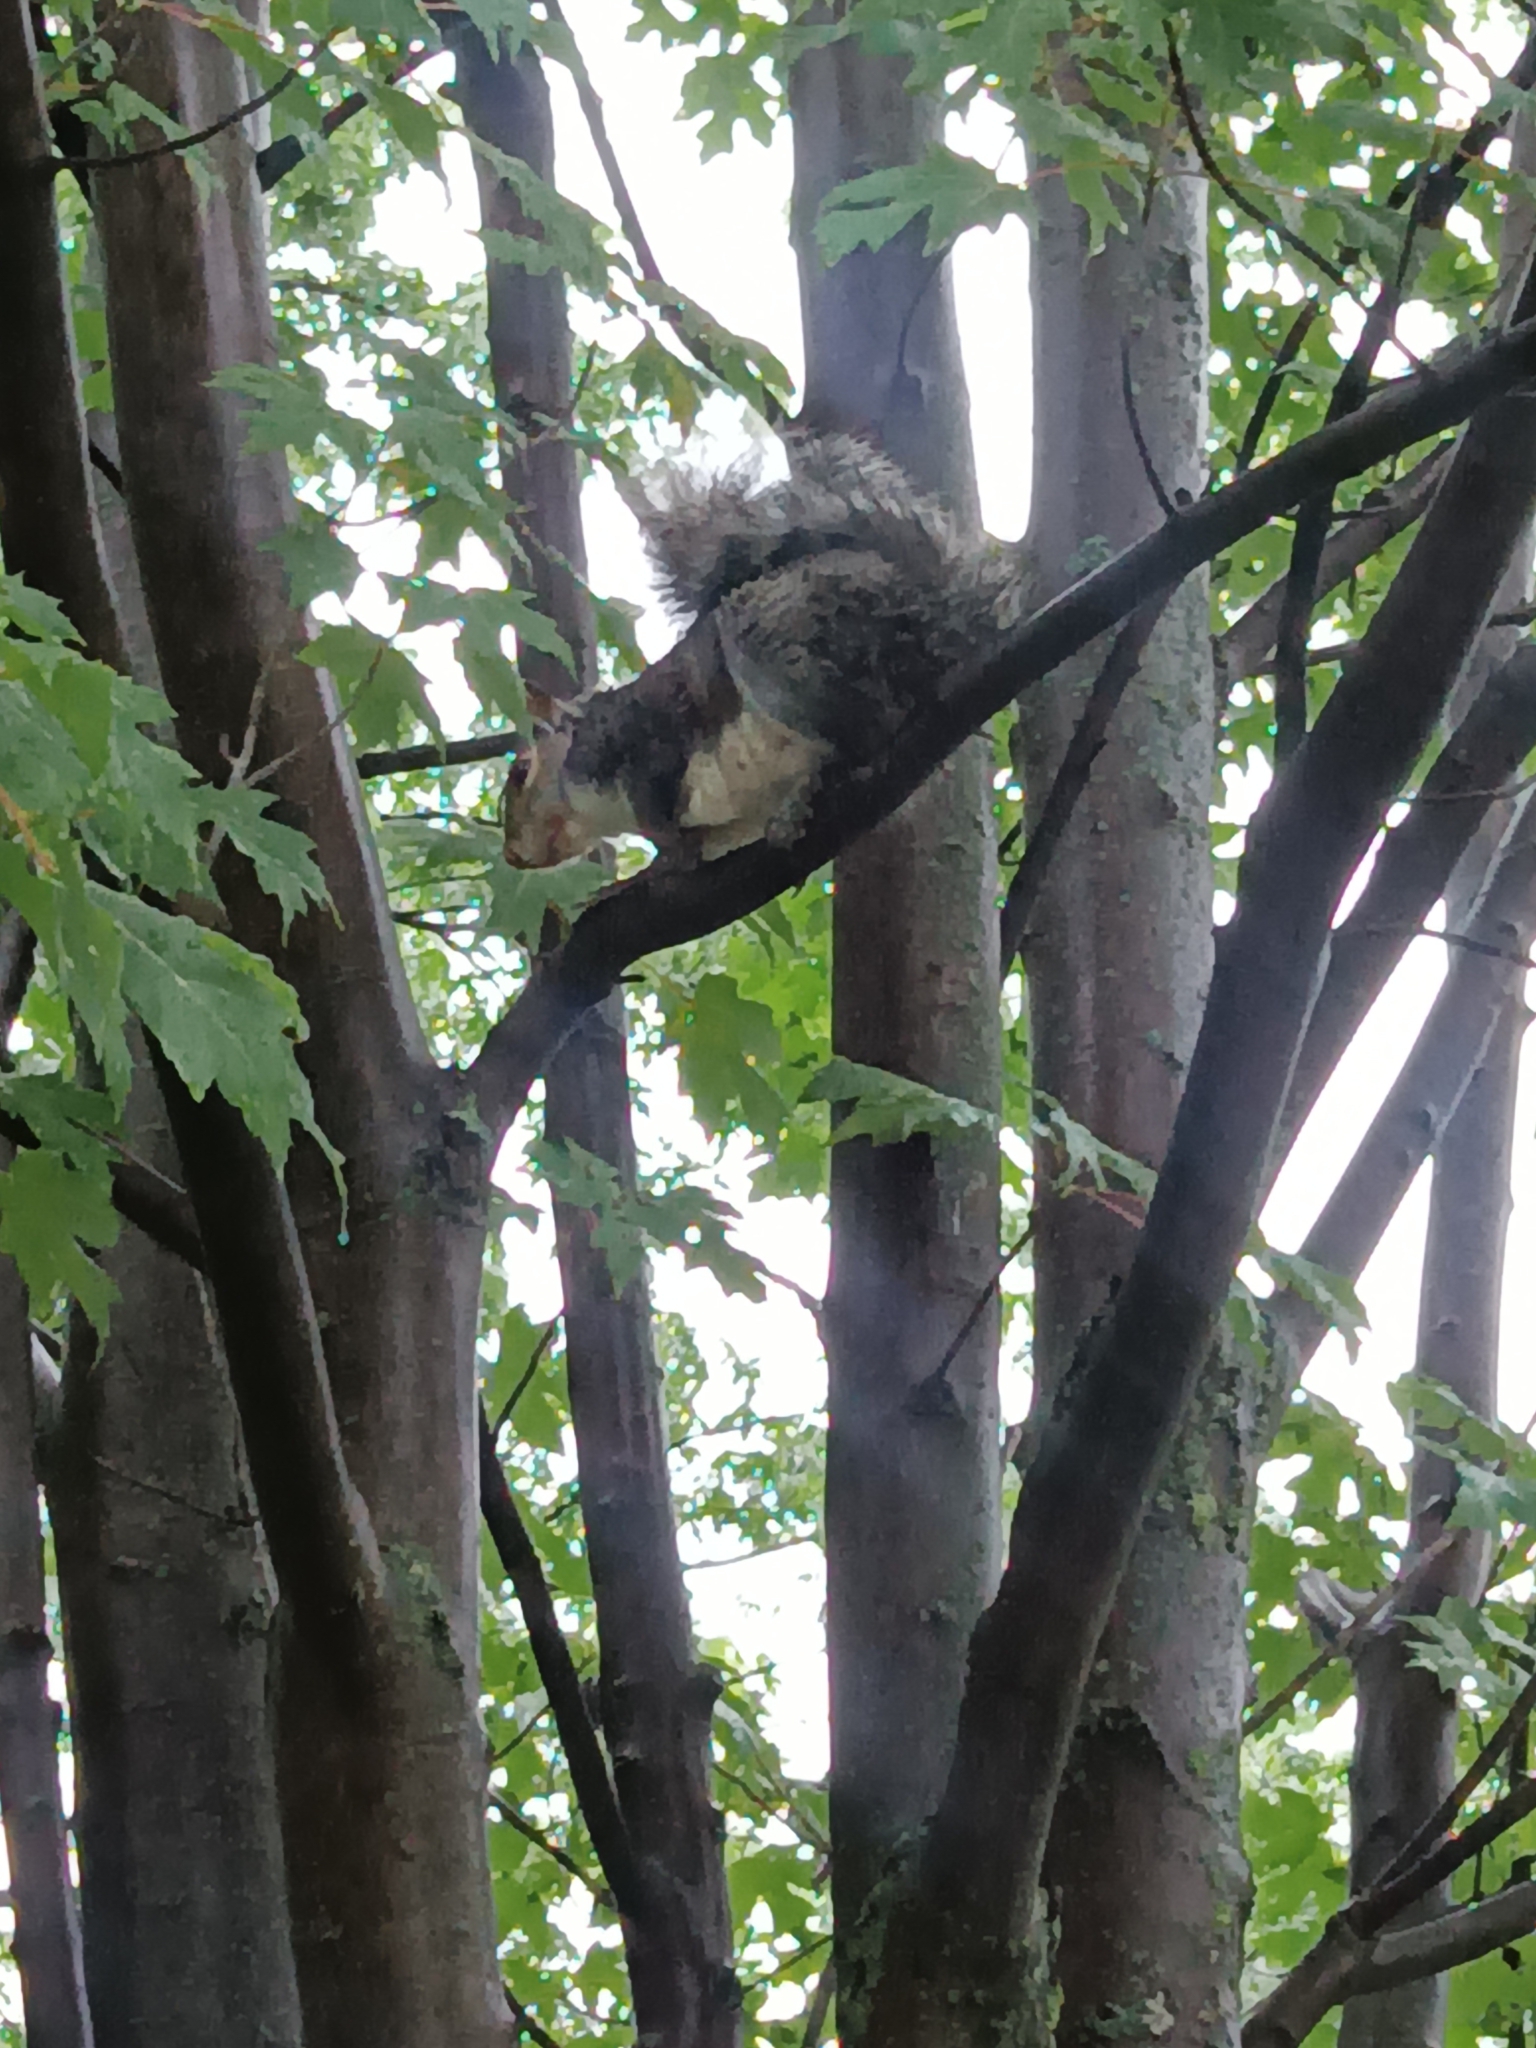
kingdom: Animalia
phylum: Chordata
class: Mammalia
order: Rodentia
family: Sciuridae
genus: Sciurus
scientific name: Sciurus carolinensis
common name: Eastern gray squirrel
